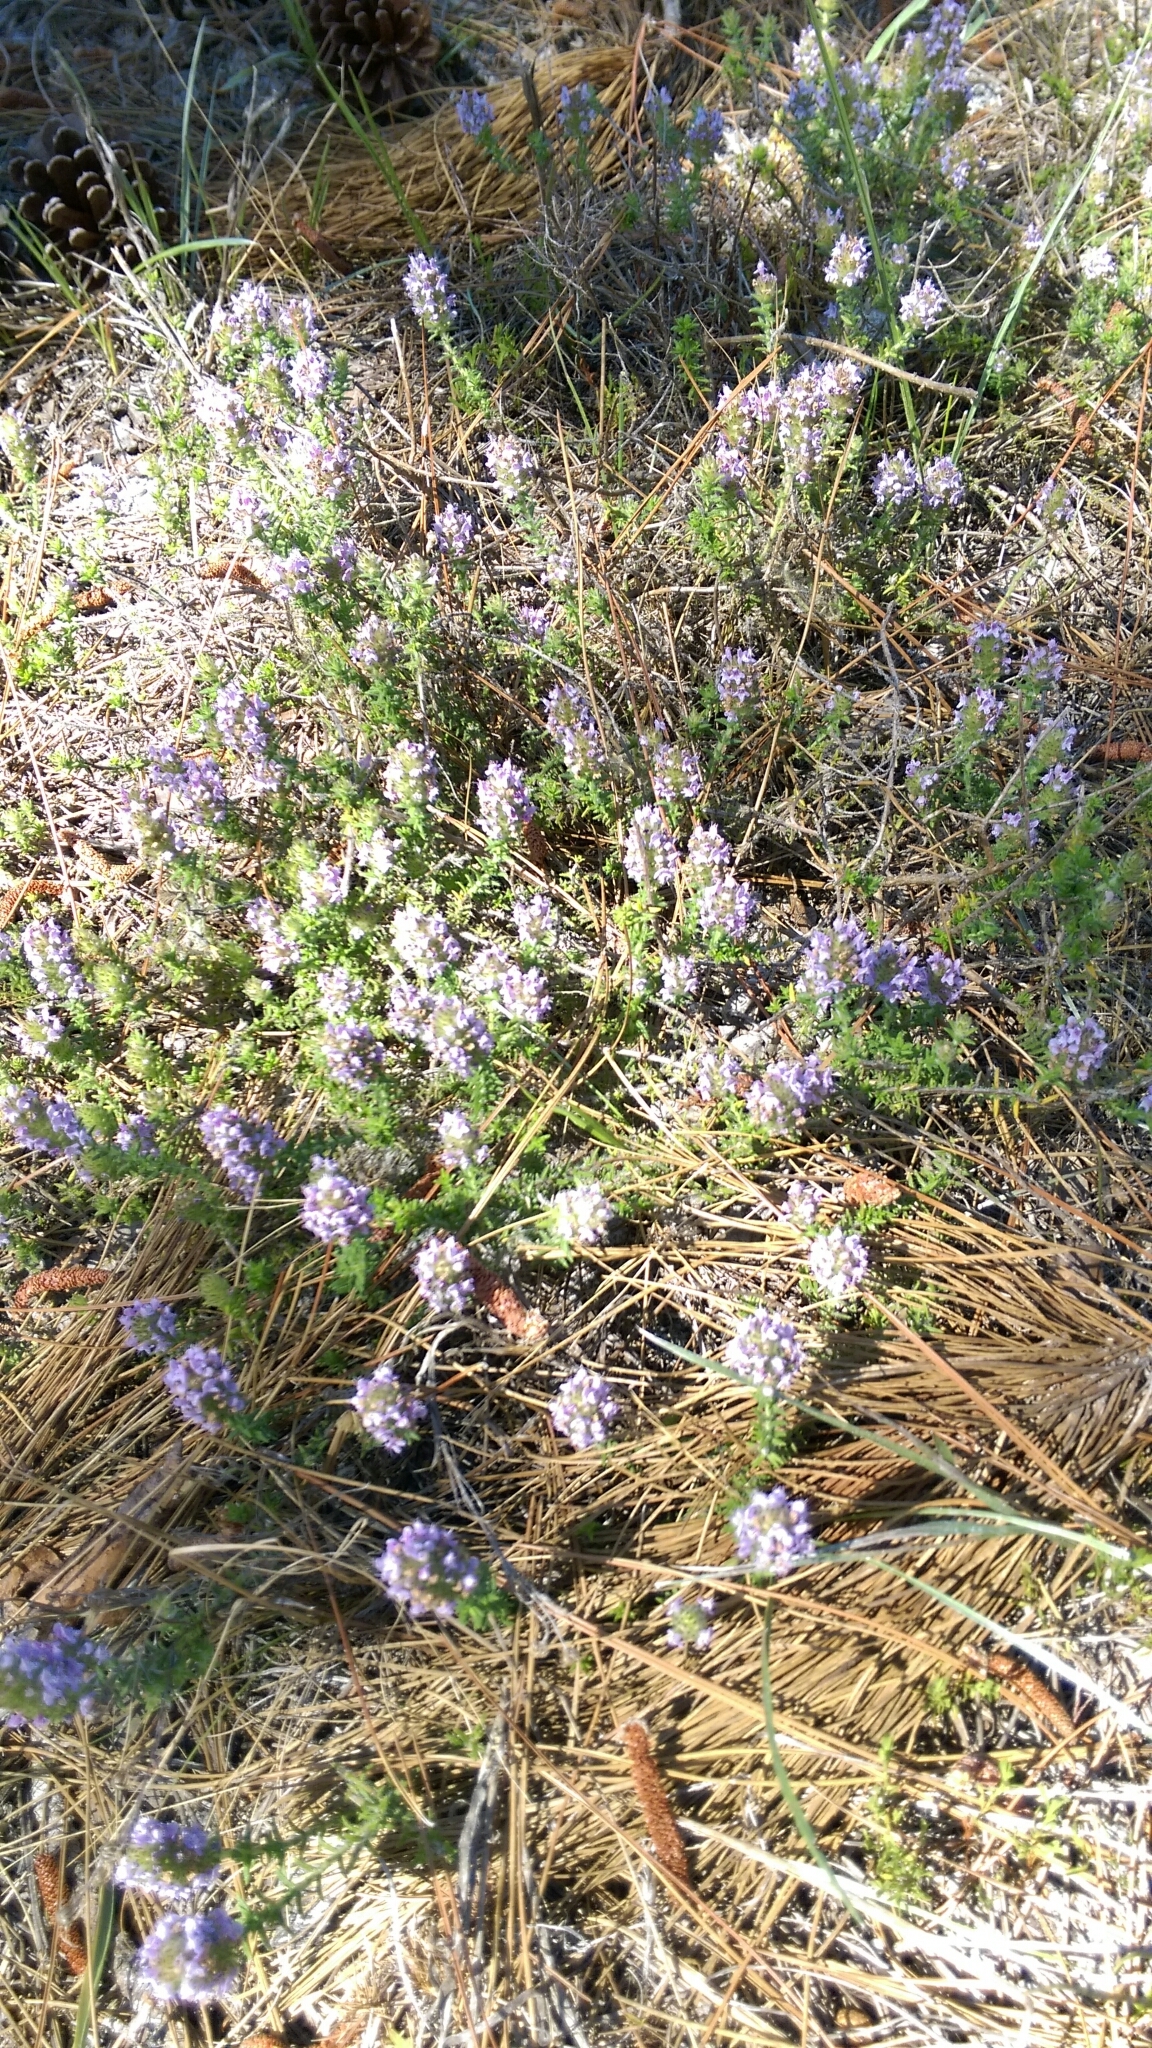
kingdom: Plantae
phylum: Tracheophyta
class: Magnoliopsida
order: Lamiales
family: Lamiaceae
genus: Piloblephis
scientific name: Piloblephis rigida
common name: Wild pennyroyal
